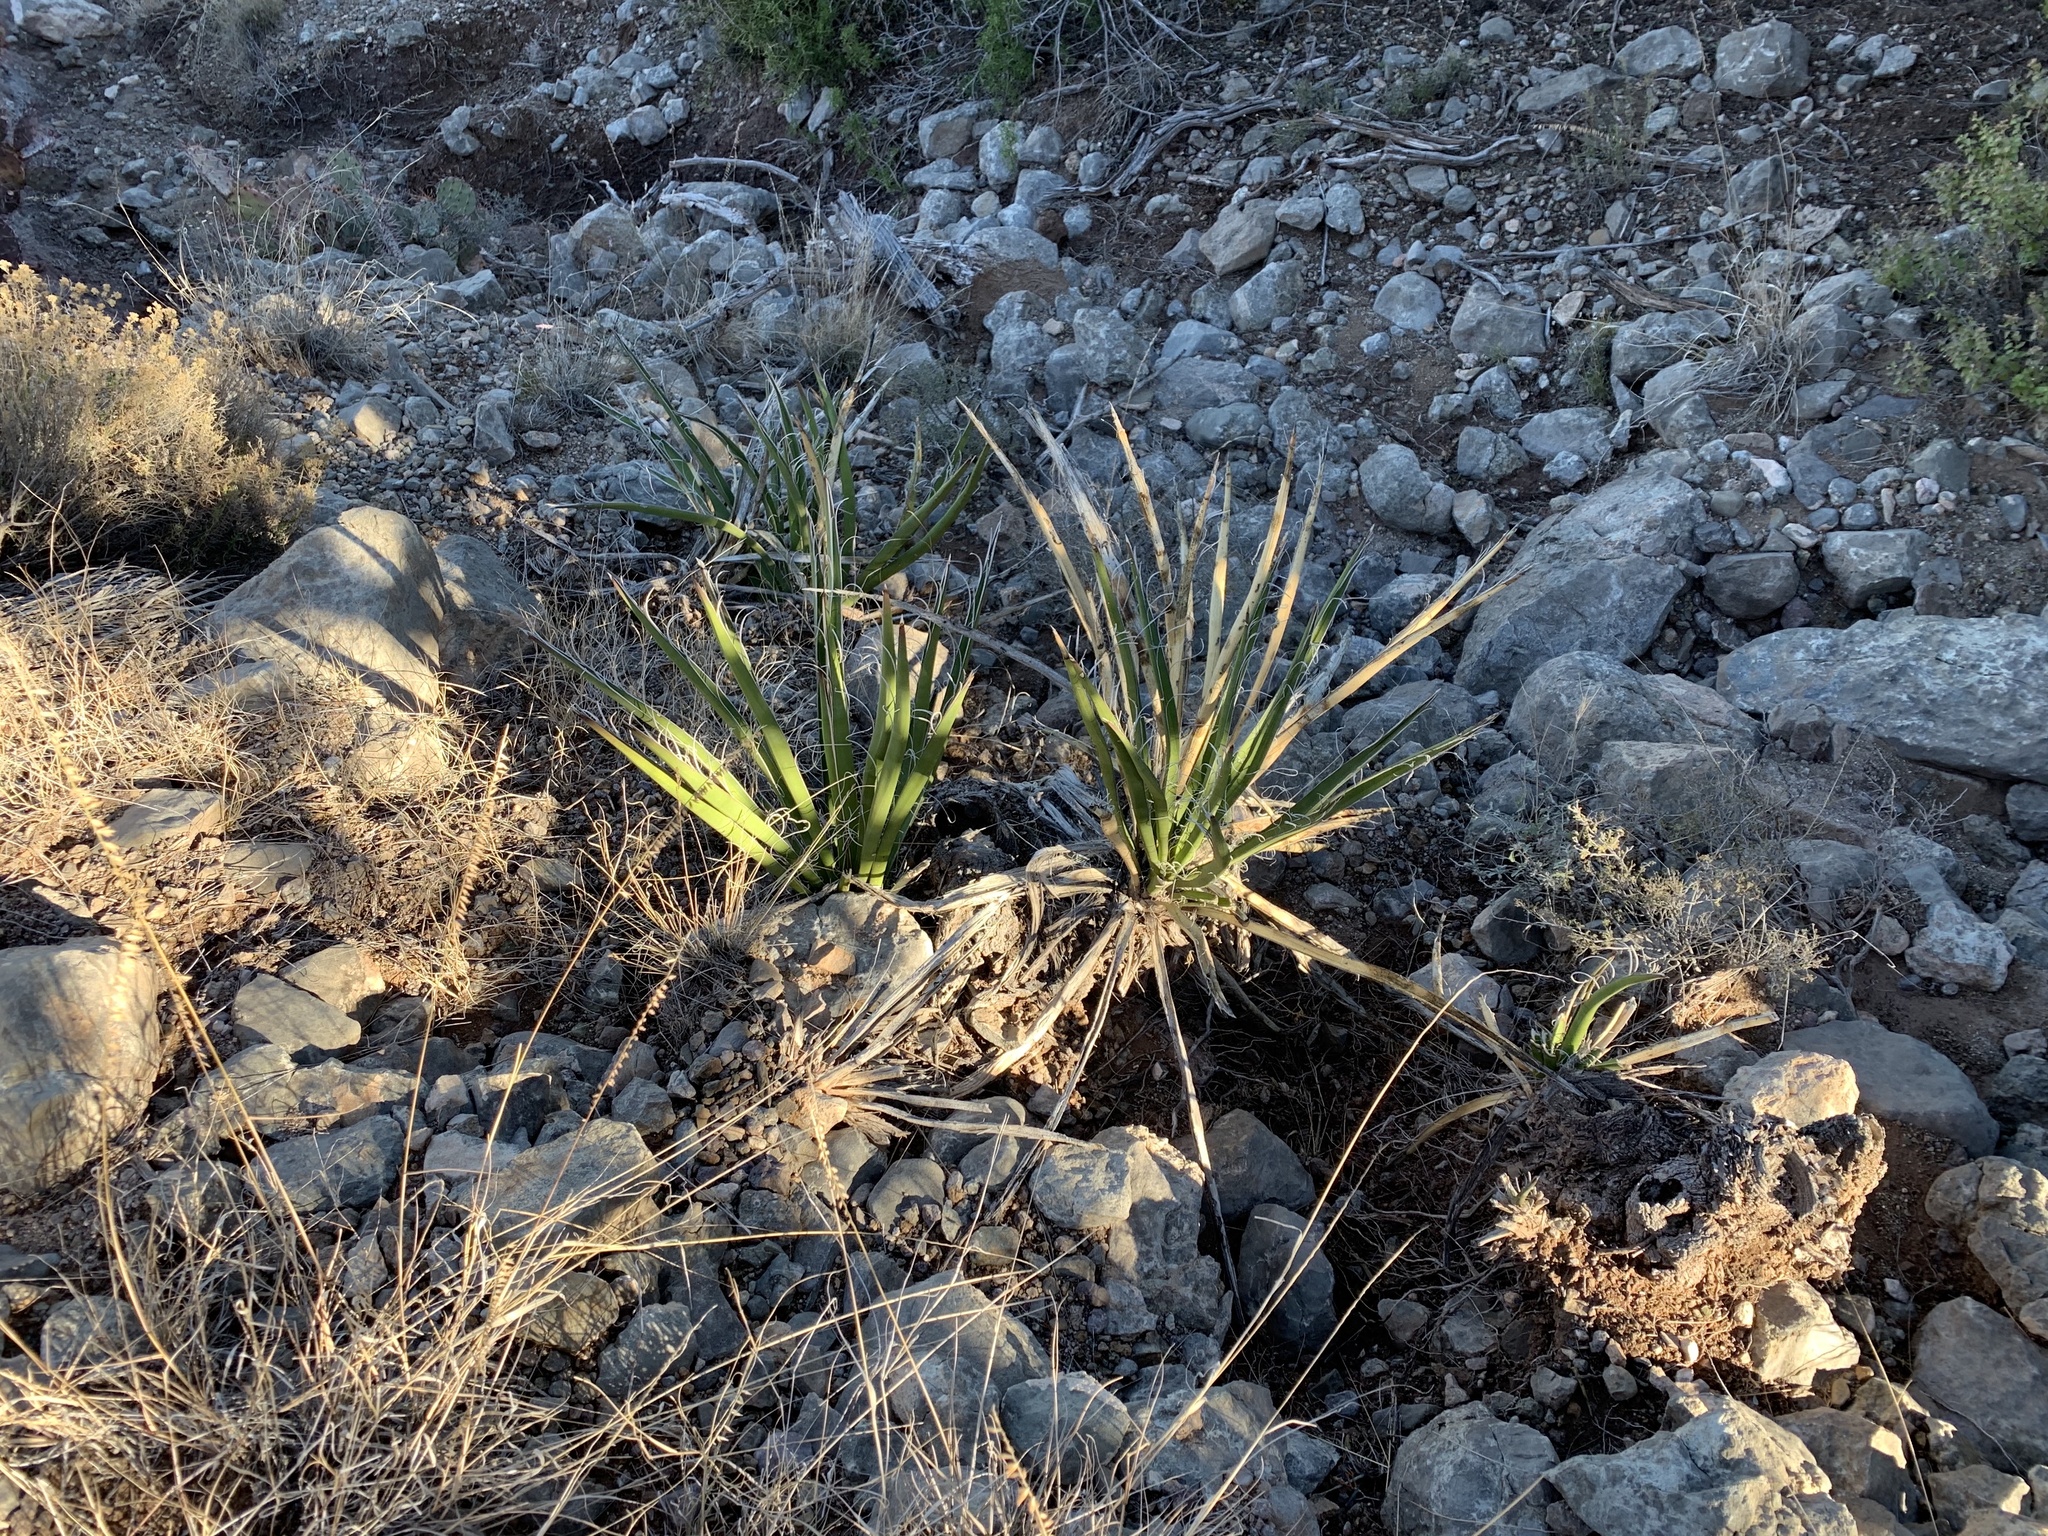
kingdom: Plantae
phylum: Tracheophyta
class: Liliopsida
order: Asparagales
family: Asparagaceae
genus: Yucca
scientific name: Yucca baccata
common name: Banana yucca
